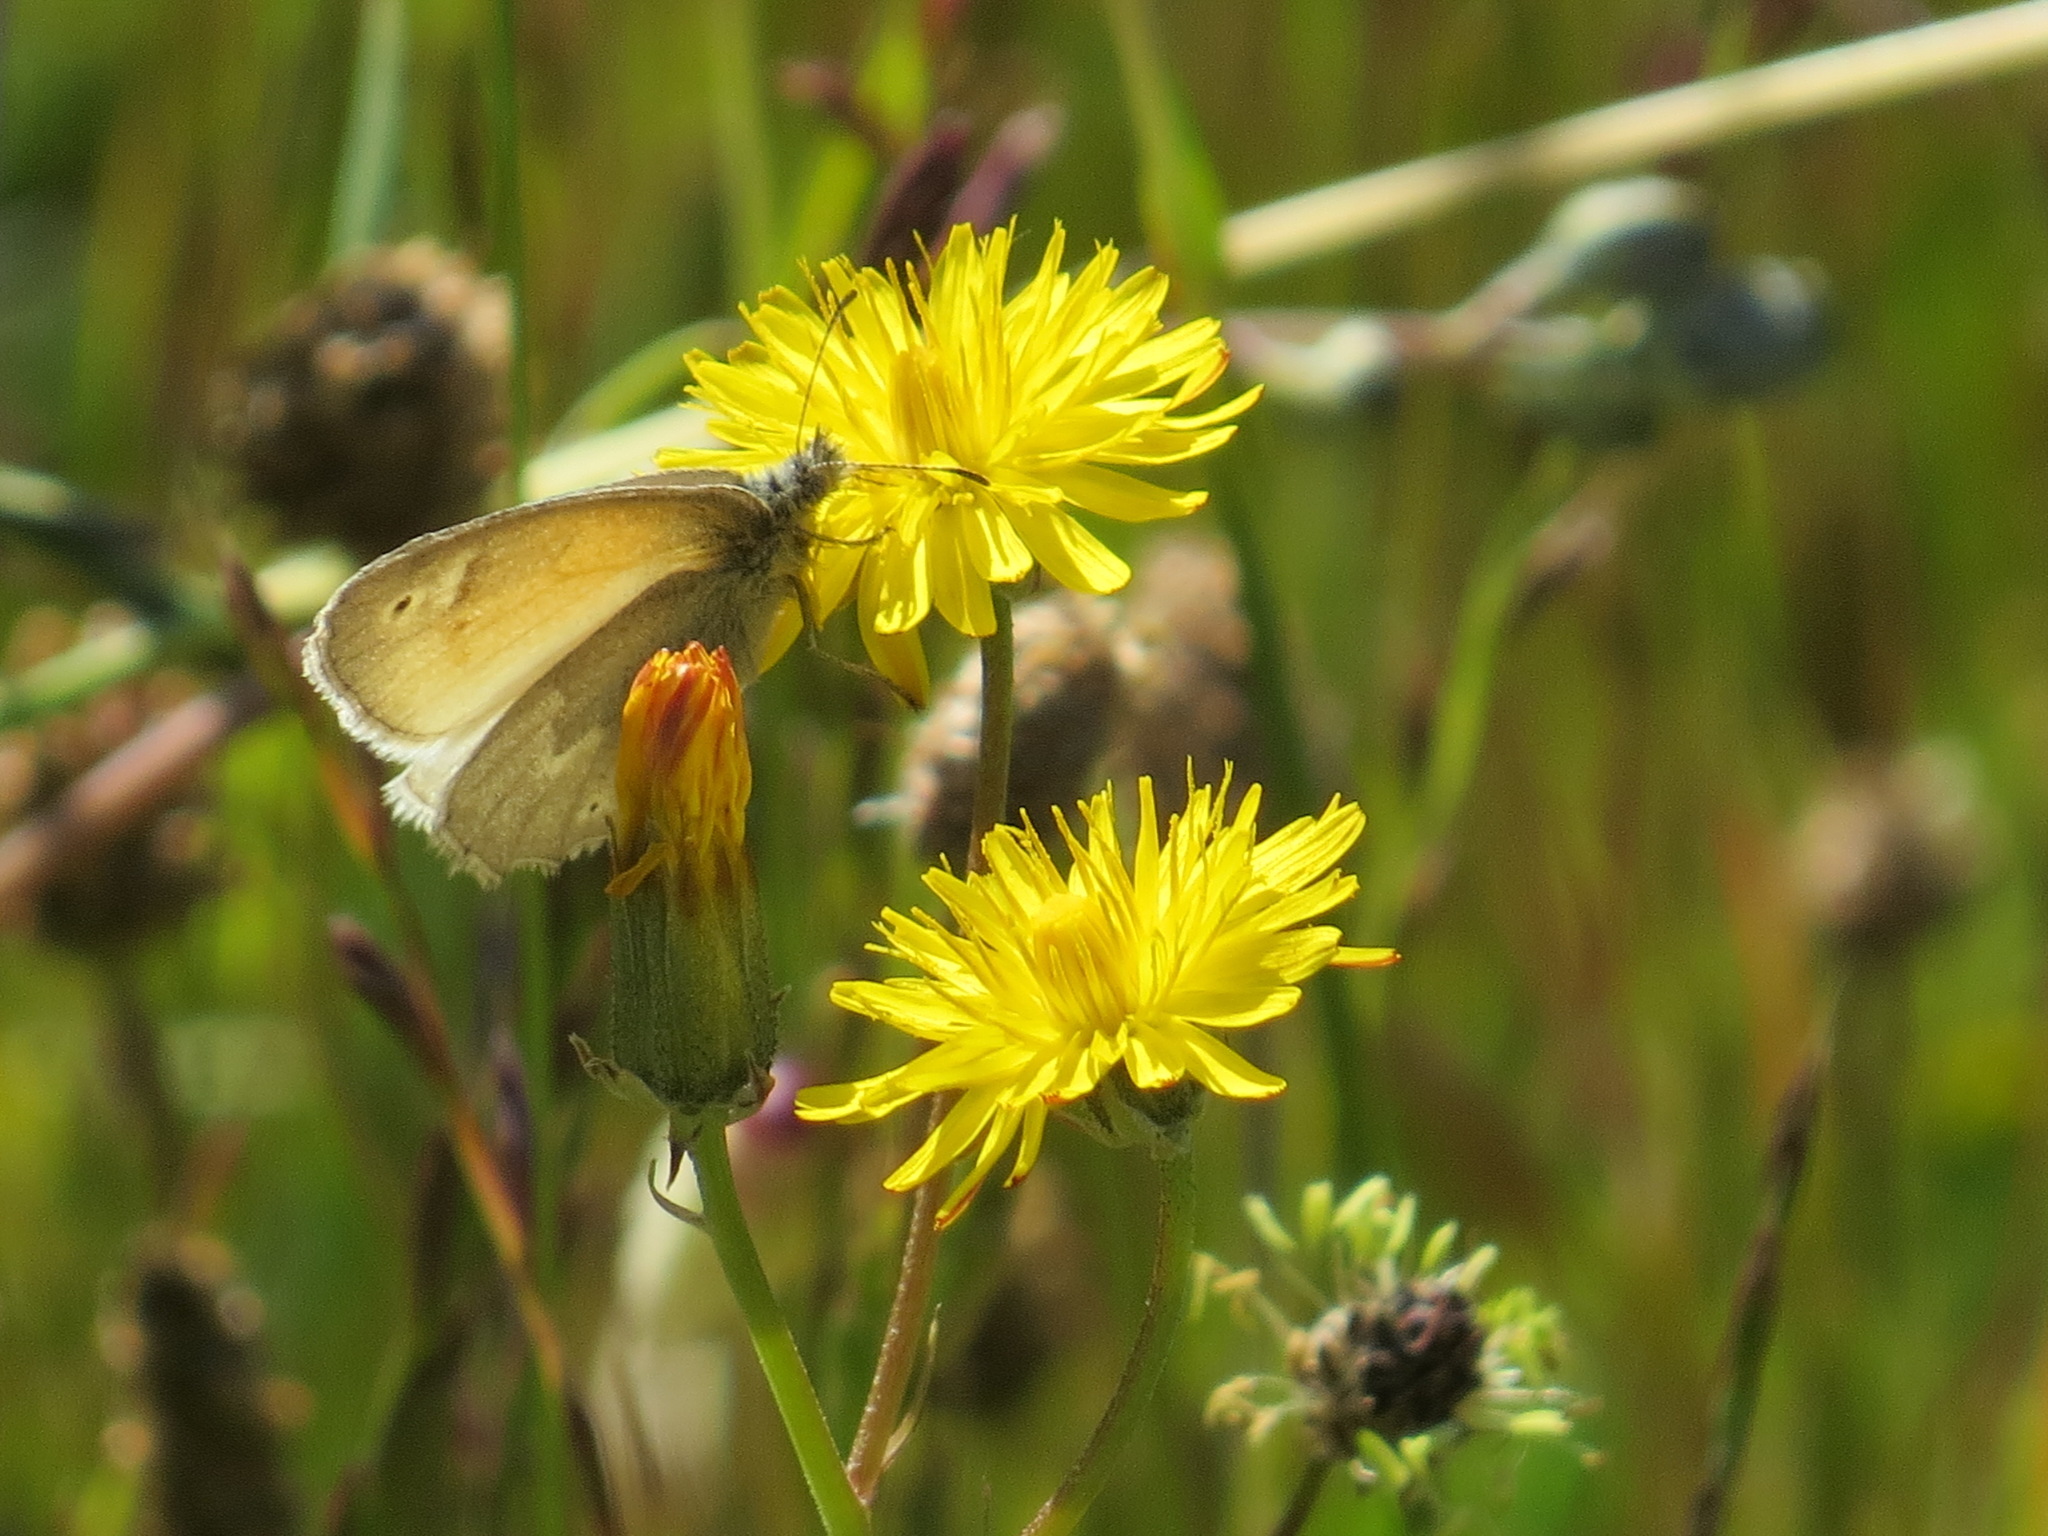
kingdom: Animalia
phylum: Arthropoda
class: Insecta
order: Lepidoptera
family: Nymphalidae
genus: Coenonympha
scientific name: Coenonympha california
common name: Common ringlet
